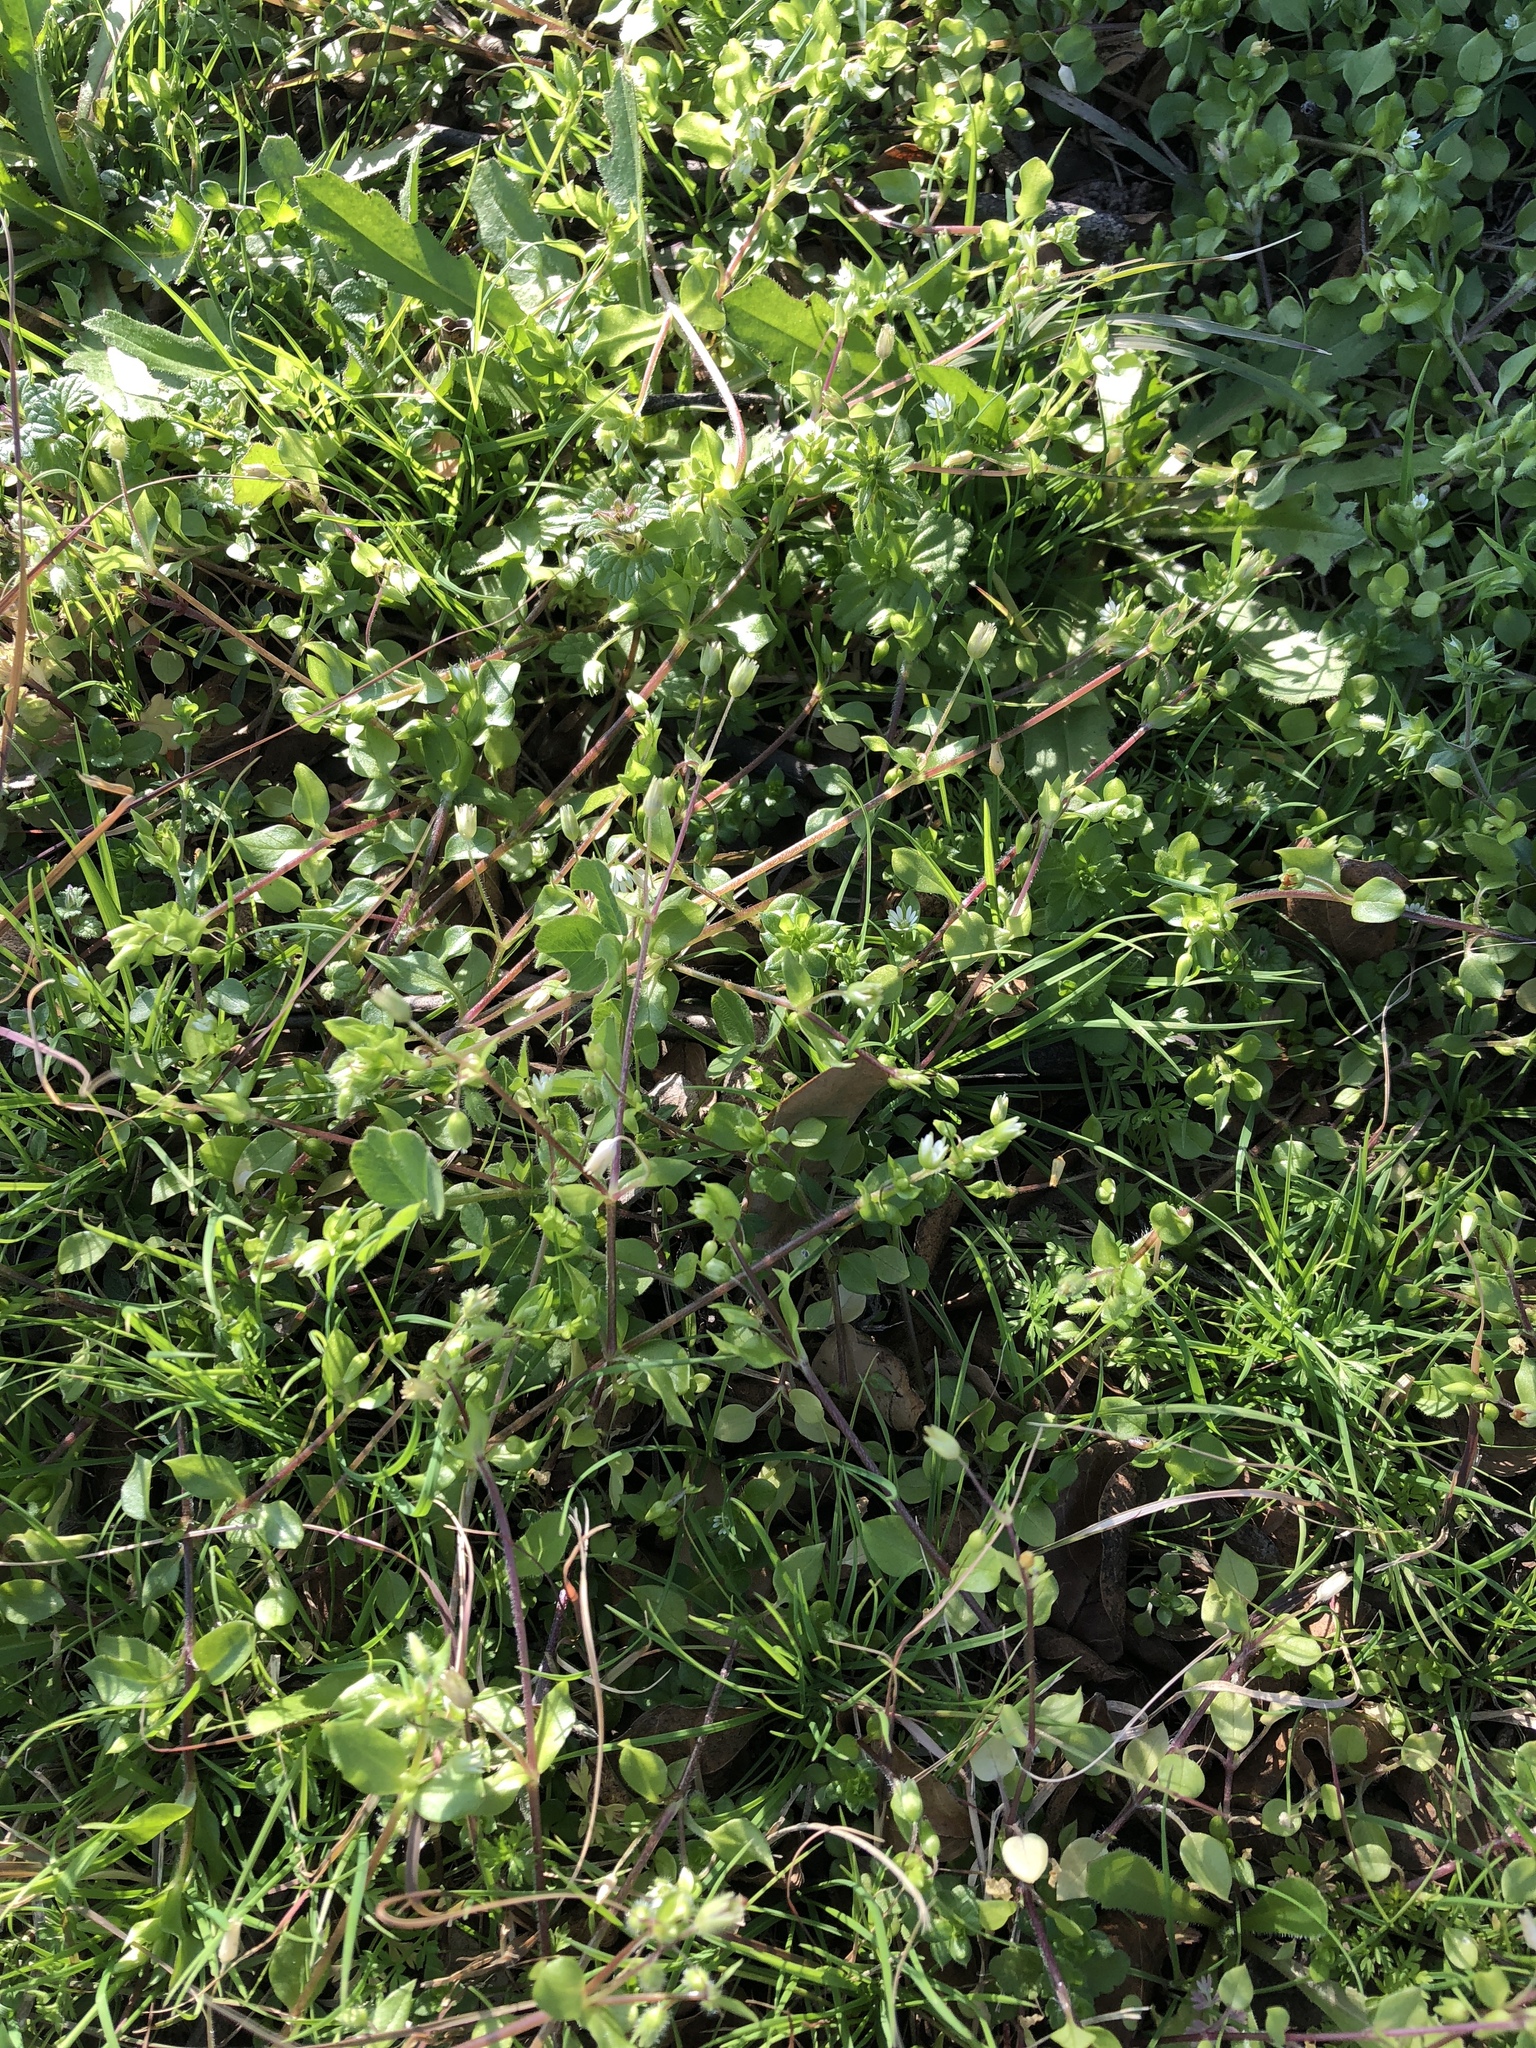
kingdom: Plantae
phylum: Tracheophyta
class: Magnoliopsida
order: Caryophyllales
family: Caryophyllaceae
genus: Stellaria
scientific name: Stellaria media
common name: Common chickweed
